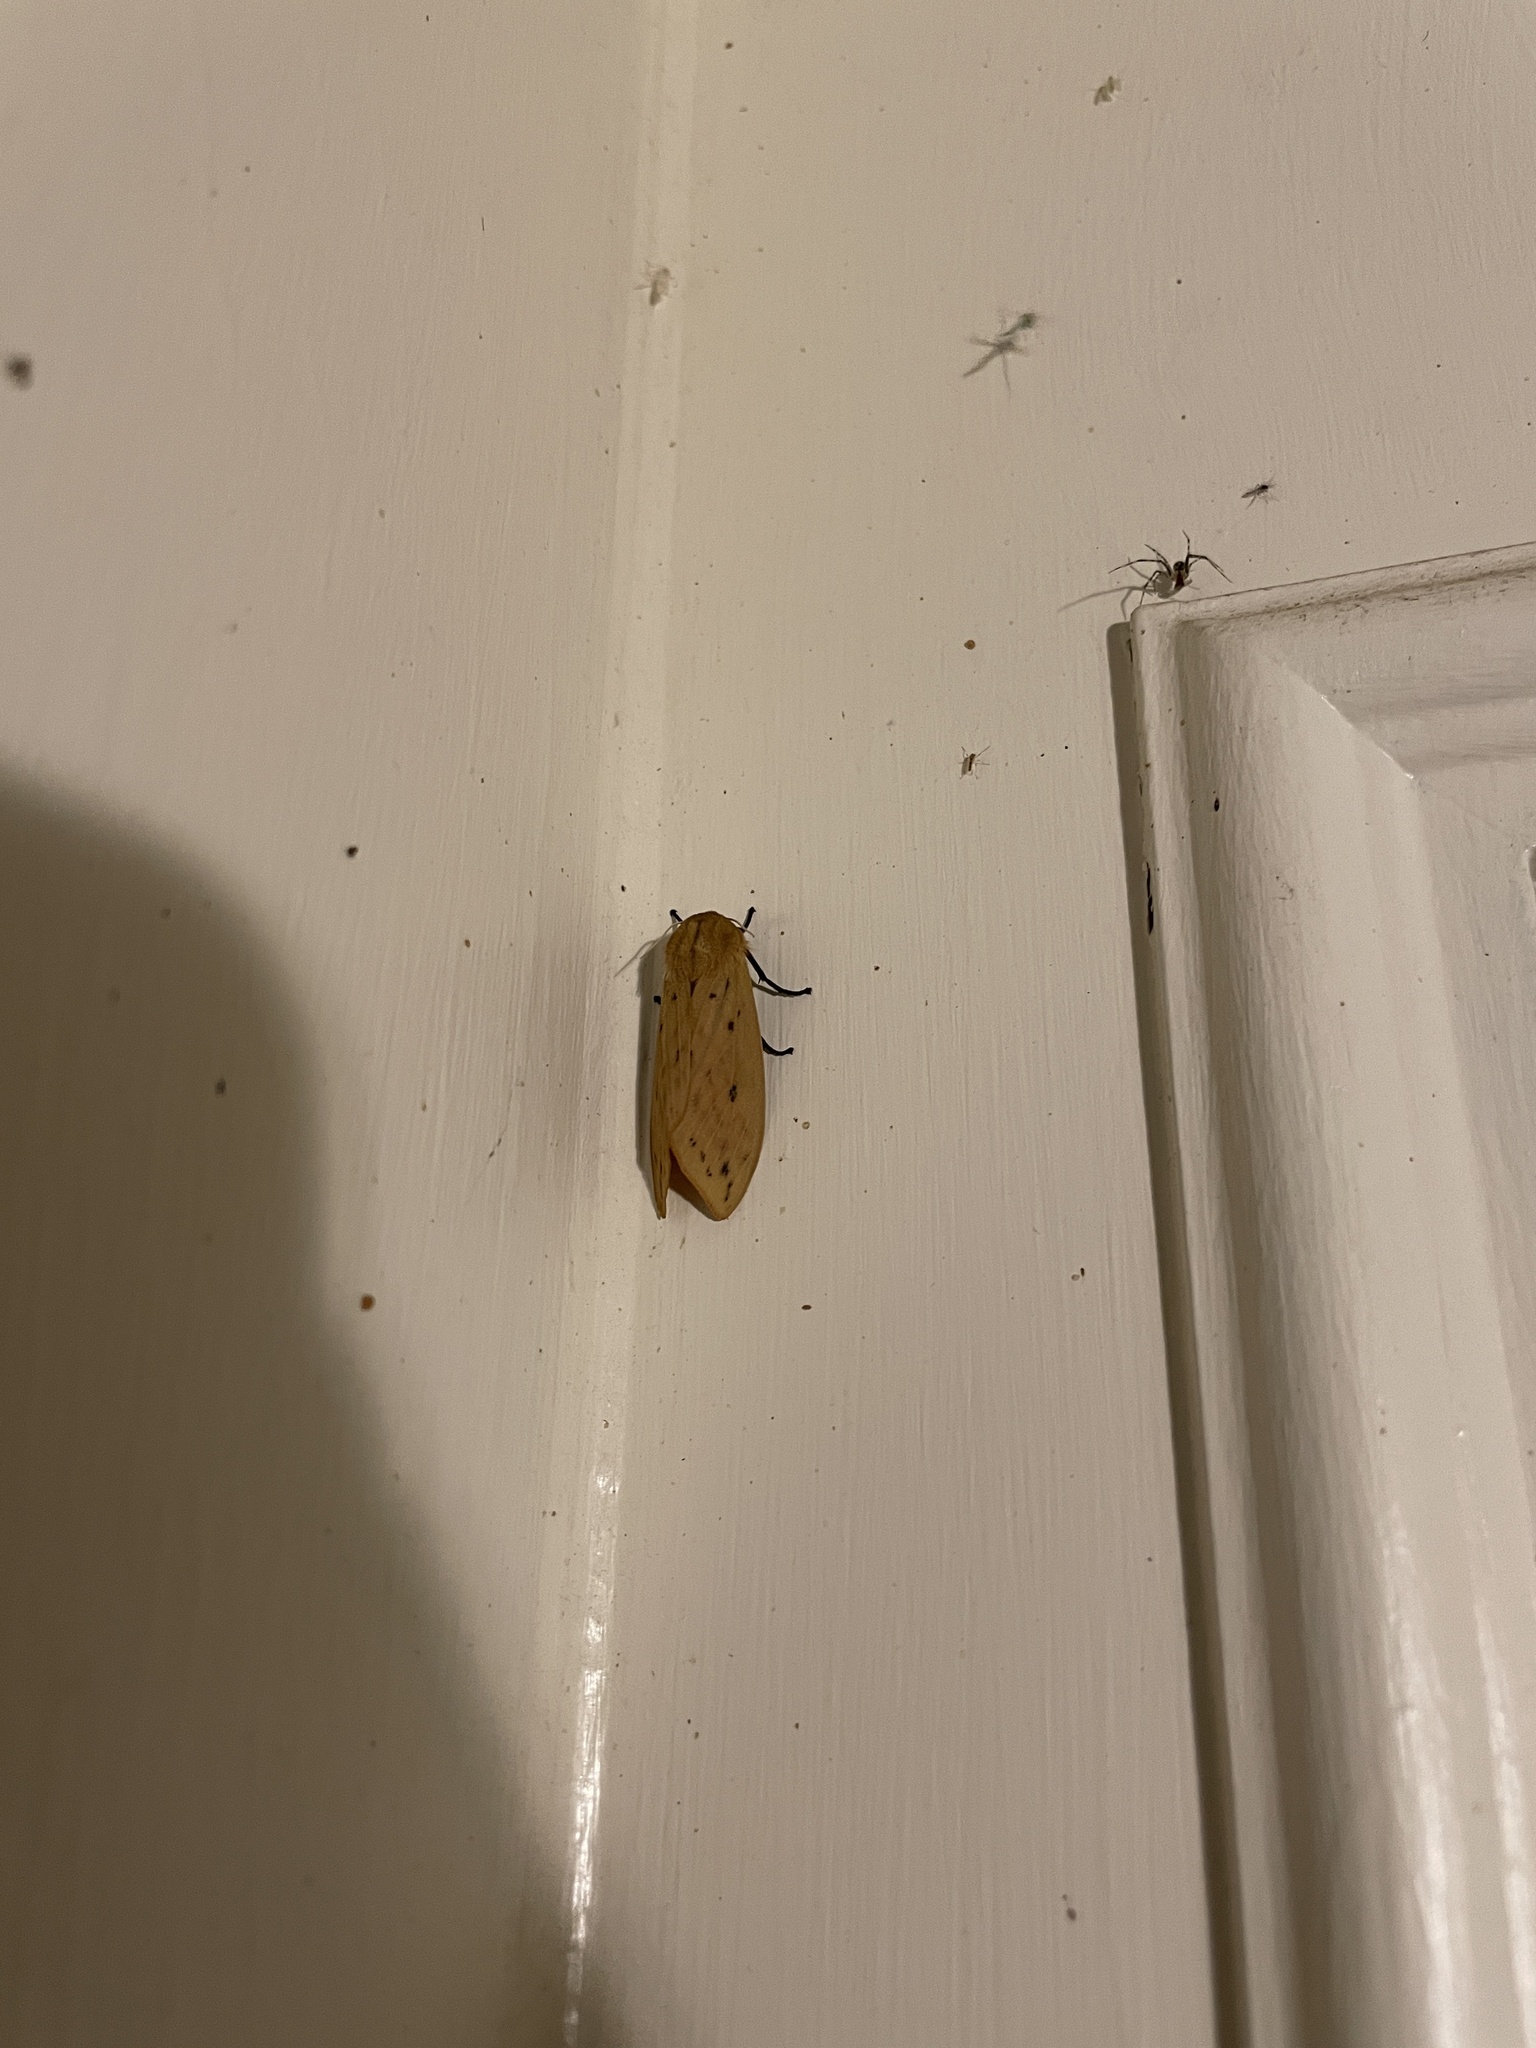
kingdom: Animalia
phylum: Arthropoda
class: Insecta
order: Lepidoptera
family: Erebidae
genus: Pyrrharctia
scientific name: Pyrrharctia isabella
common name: Isabella tiger moth
